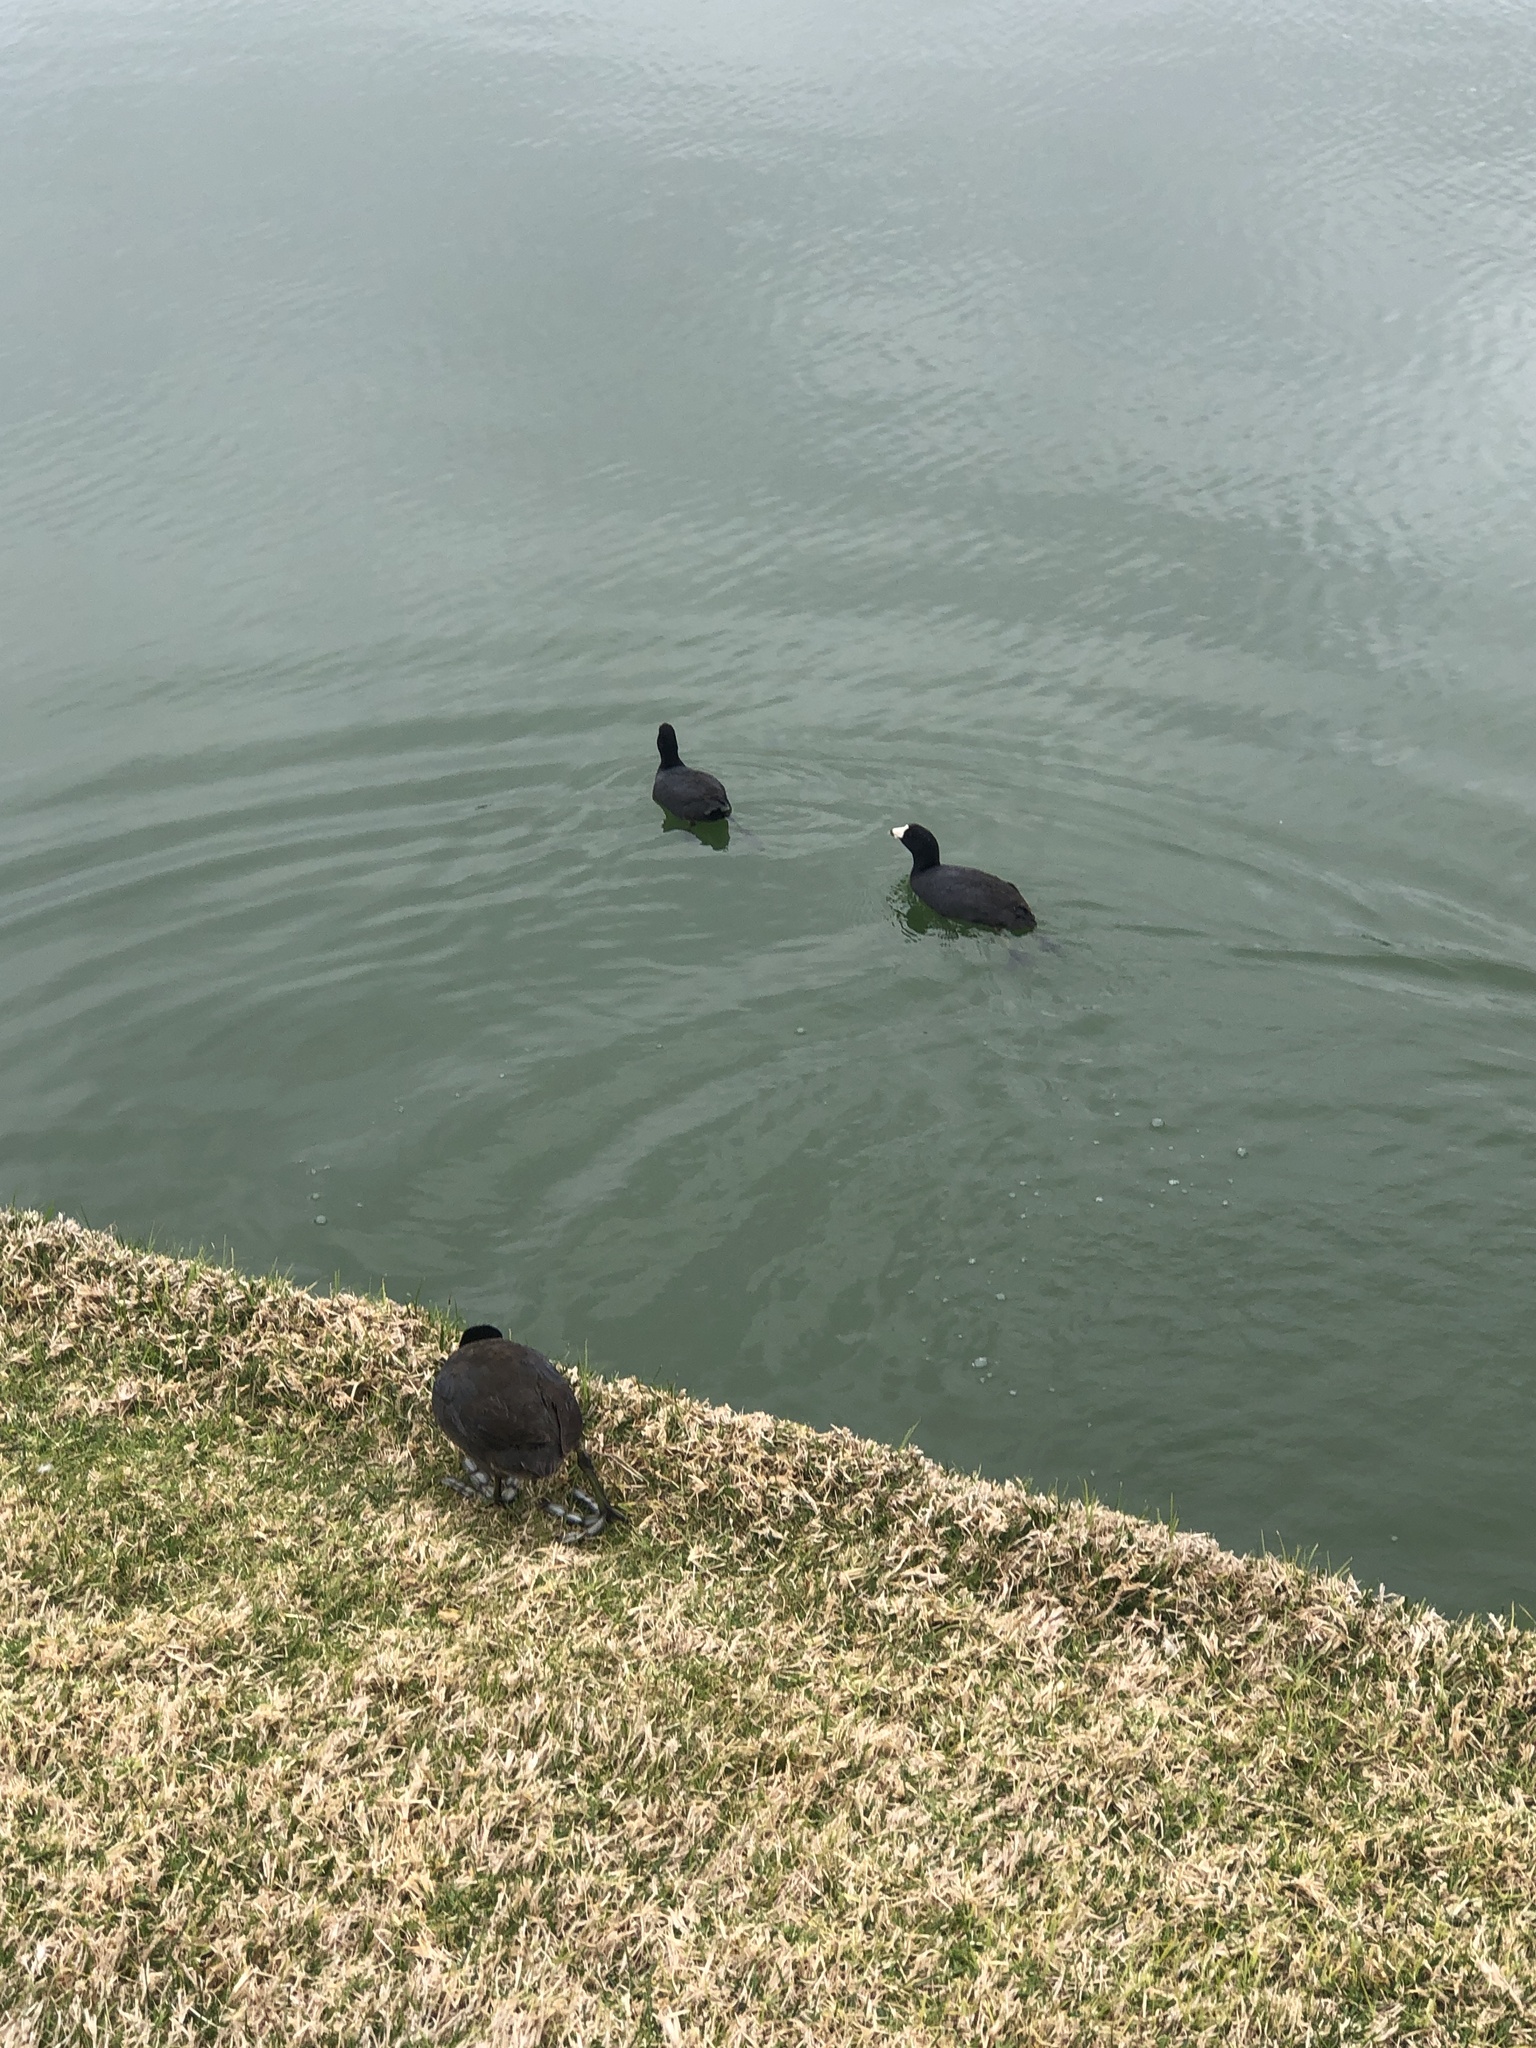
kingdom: Animalia
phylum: Chordata
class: Aves
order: Gruiformes
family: Rallidae
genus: Fulica
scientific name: Fulica americana
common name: American coot
